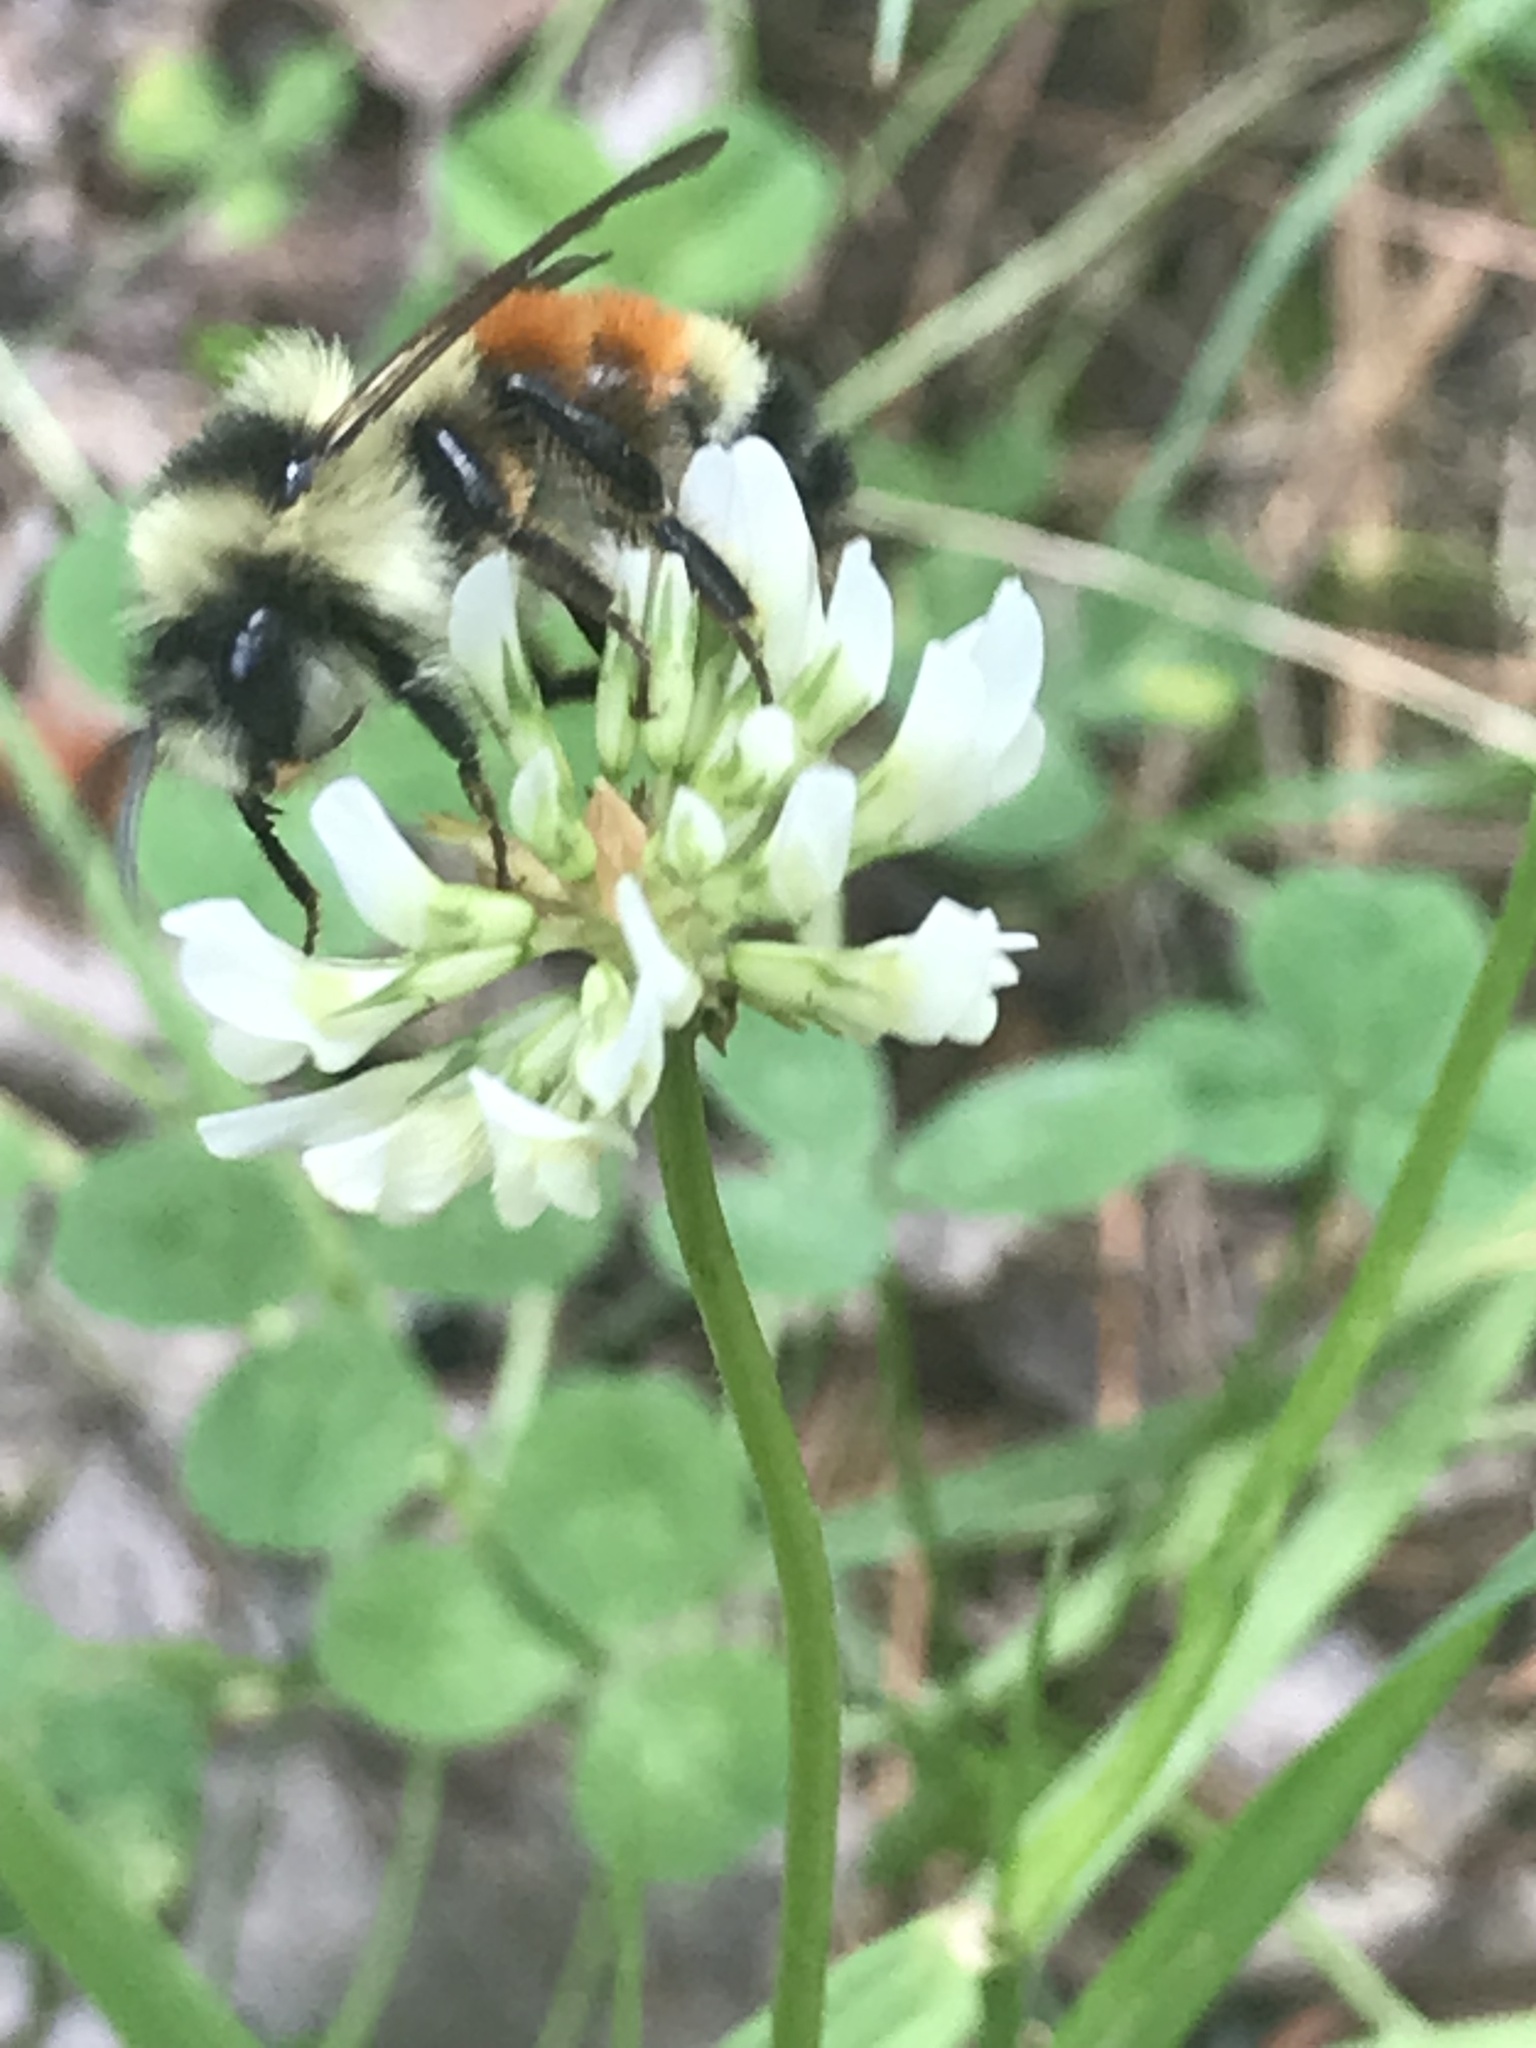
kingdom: Animalia
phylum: Arthropoda
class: Insecta
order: Hymenoptera
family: Apidae
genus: Bombus
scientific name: Bombus ternarius
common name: Tri-colored bumble bee
